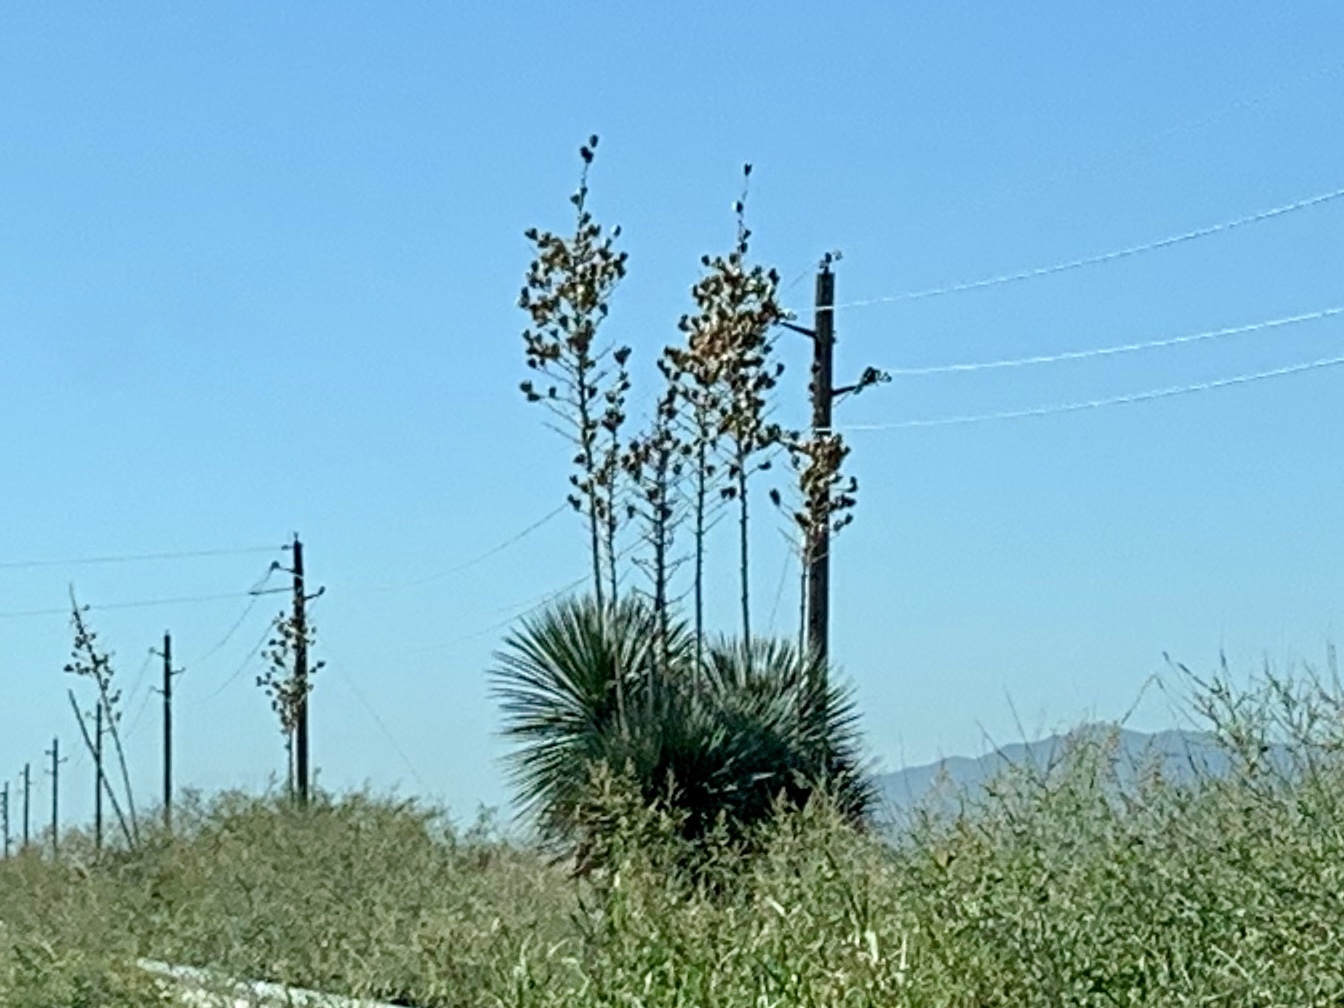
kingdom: Plantae
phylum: Tracheophyta
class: Liliopsida
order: Asparagales
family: Asparagaceae
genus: Yucca
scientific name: Yucca elata
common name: Palmella
